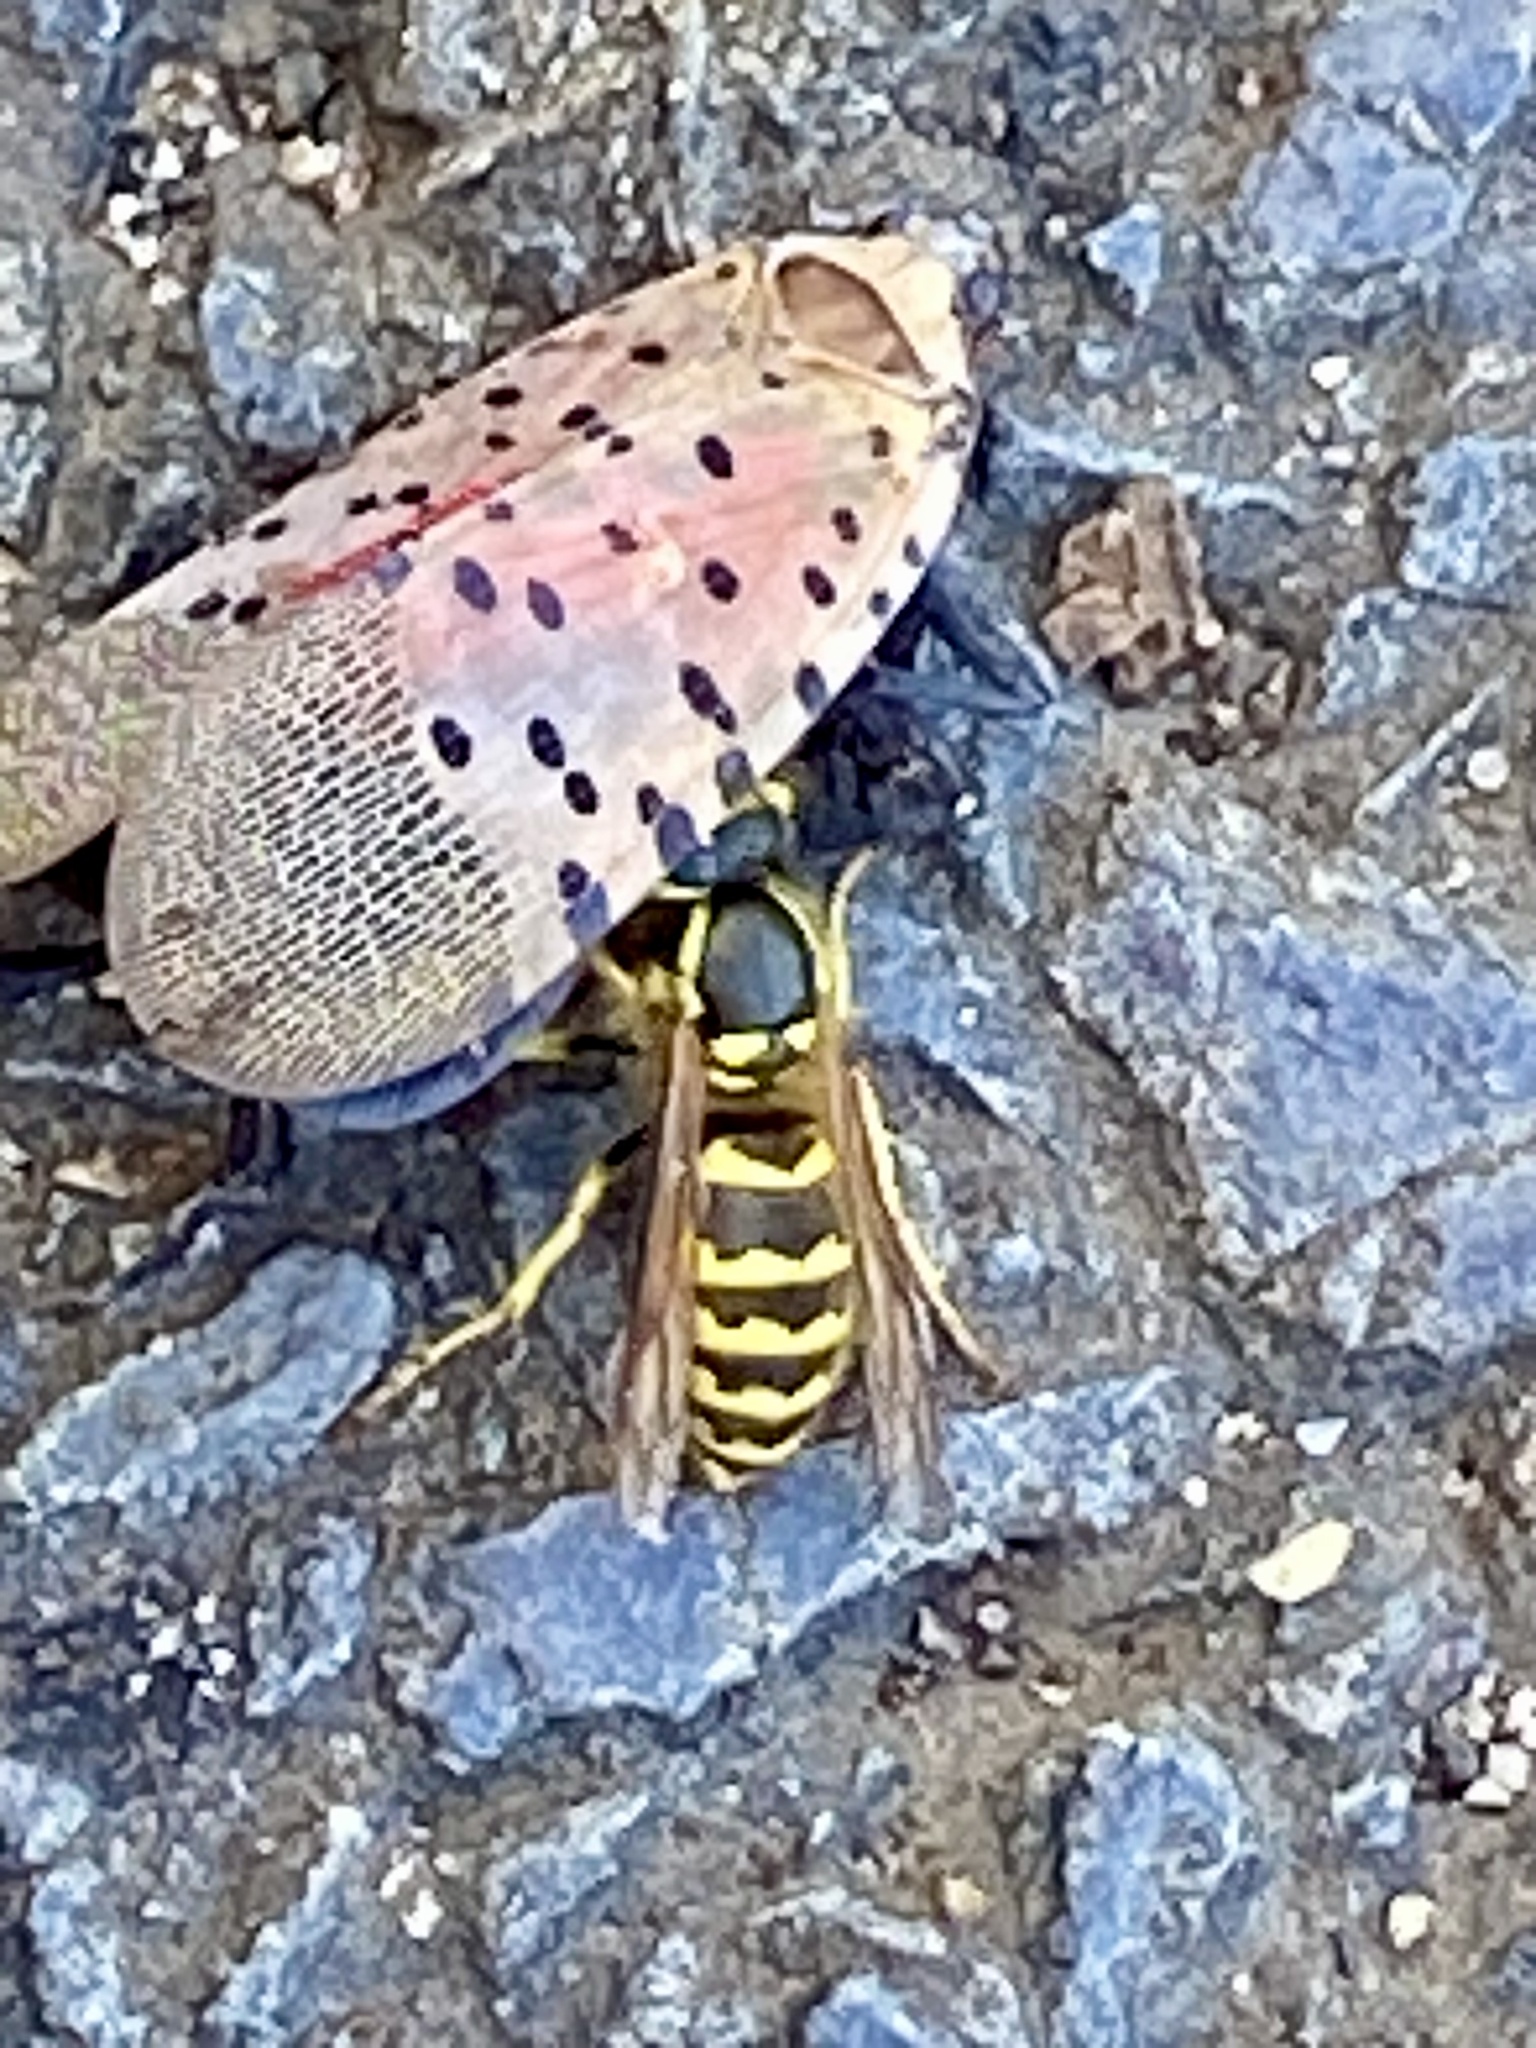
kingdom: Animalia
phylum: Arthropoda
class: Insecta
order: Hymenoptera
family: Vespidae
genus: Vespula
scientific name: Vespula flavopilosa
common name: Downy yellowjacket
